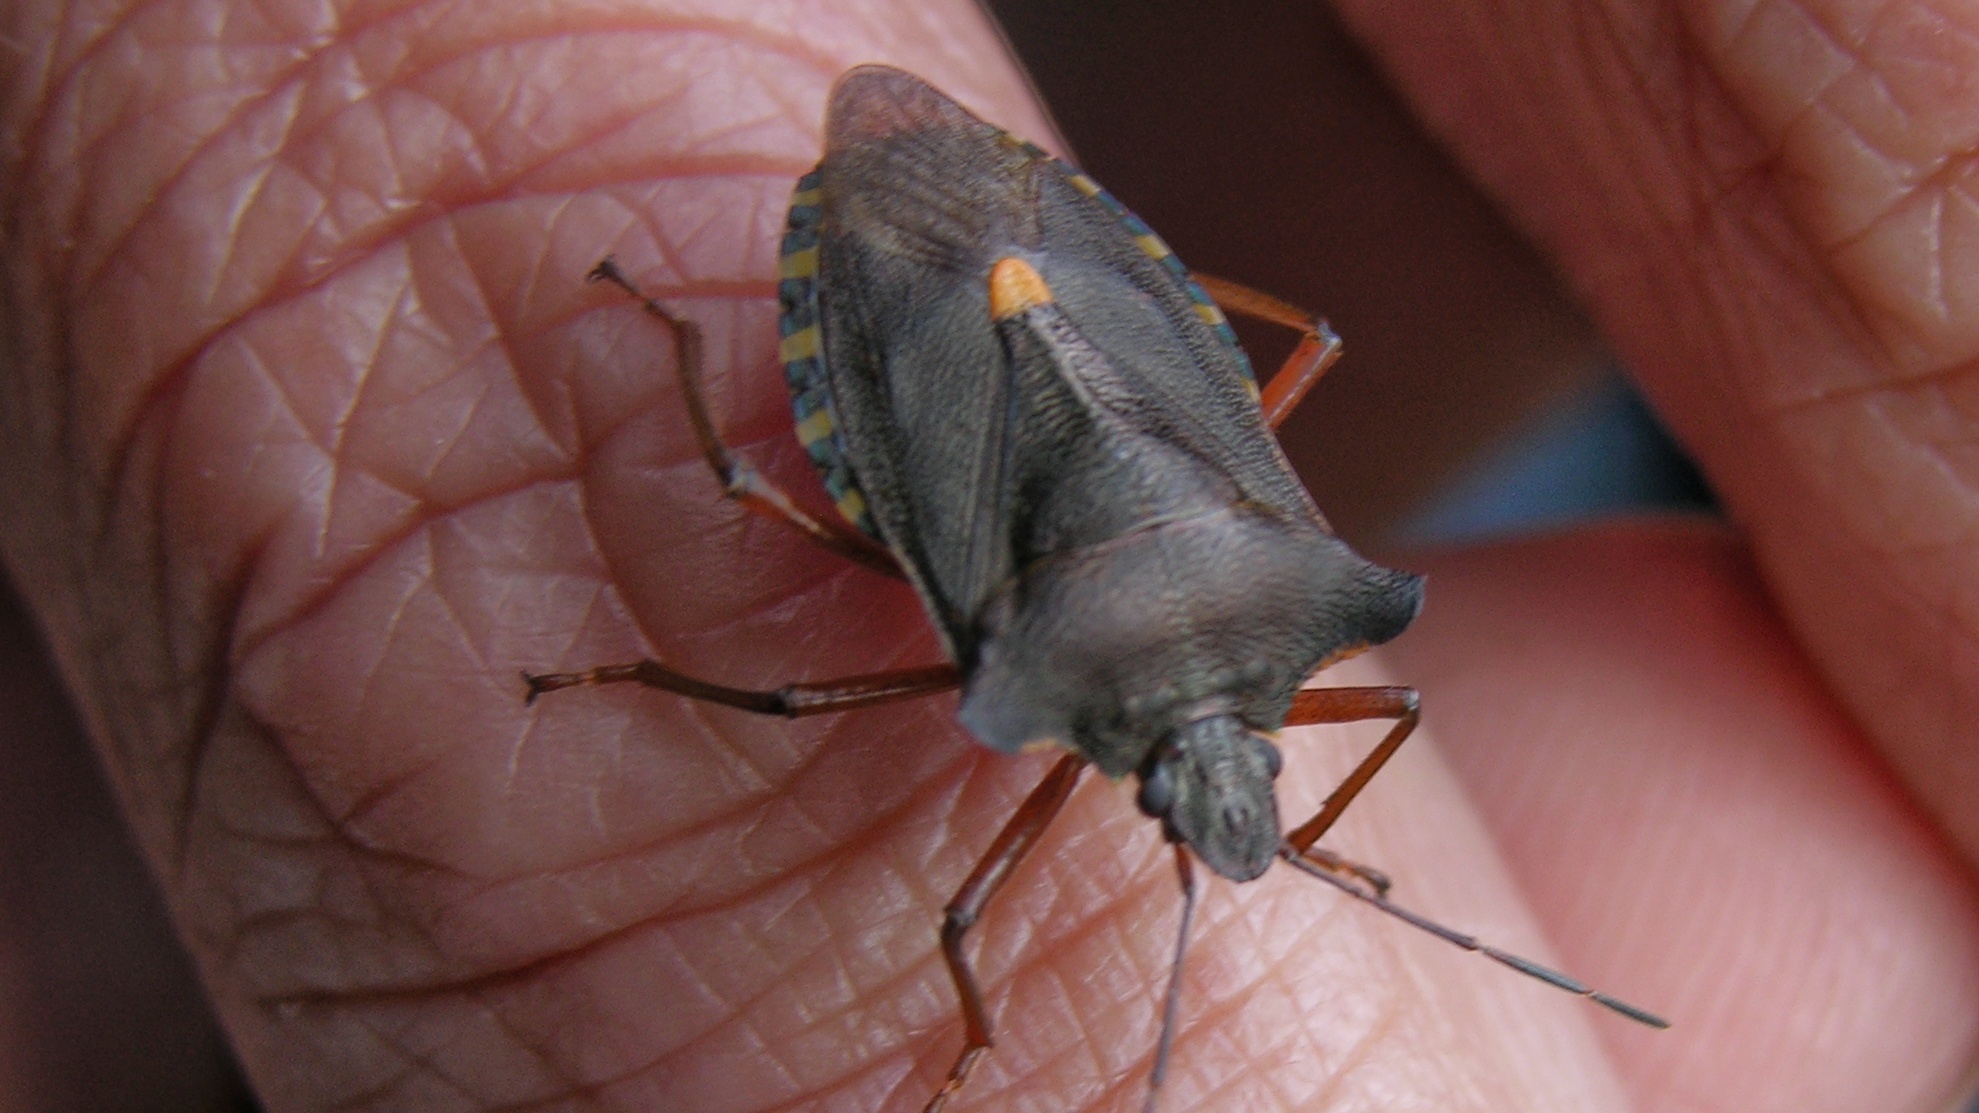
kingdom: Animalia
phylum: Arthropoda
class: Insecta
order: Hemiptera
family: Pentatomidae
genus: Pentatoma
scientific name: Pentatoma rufipes
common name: Forest bug
